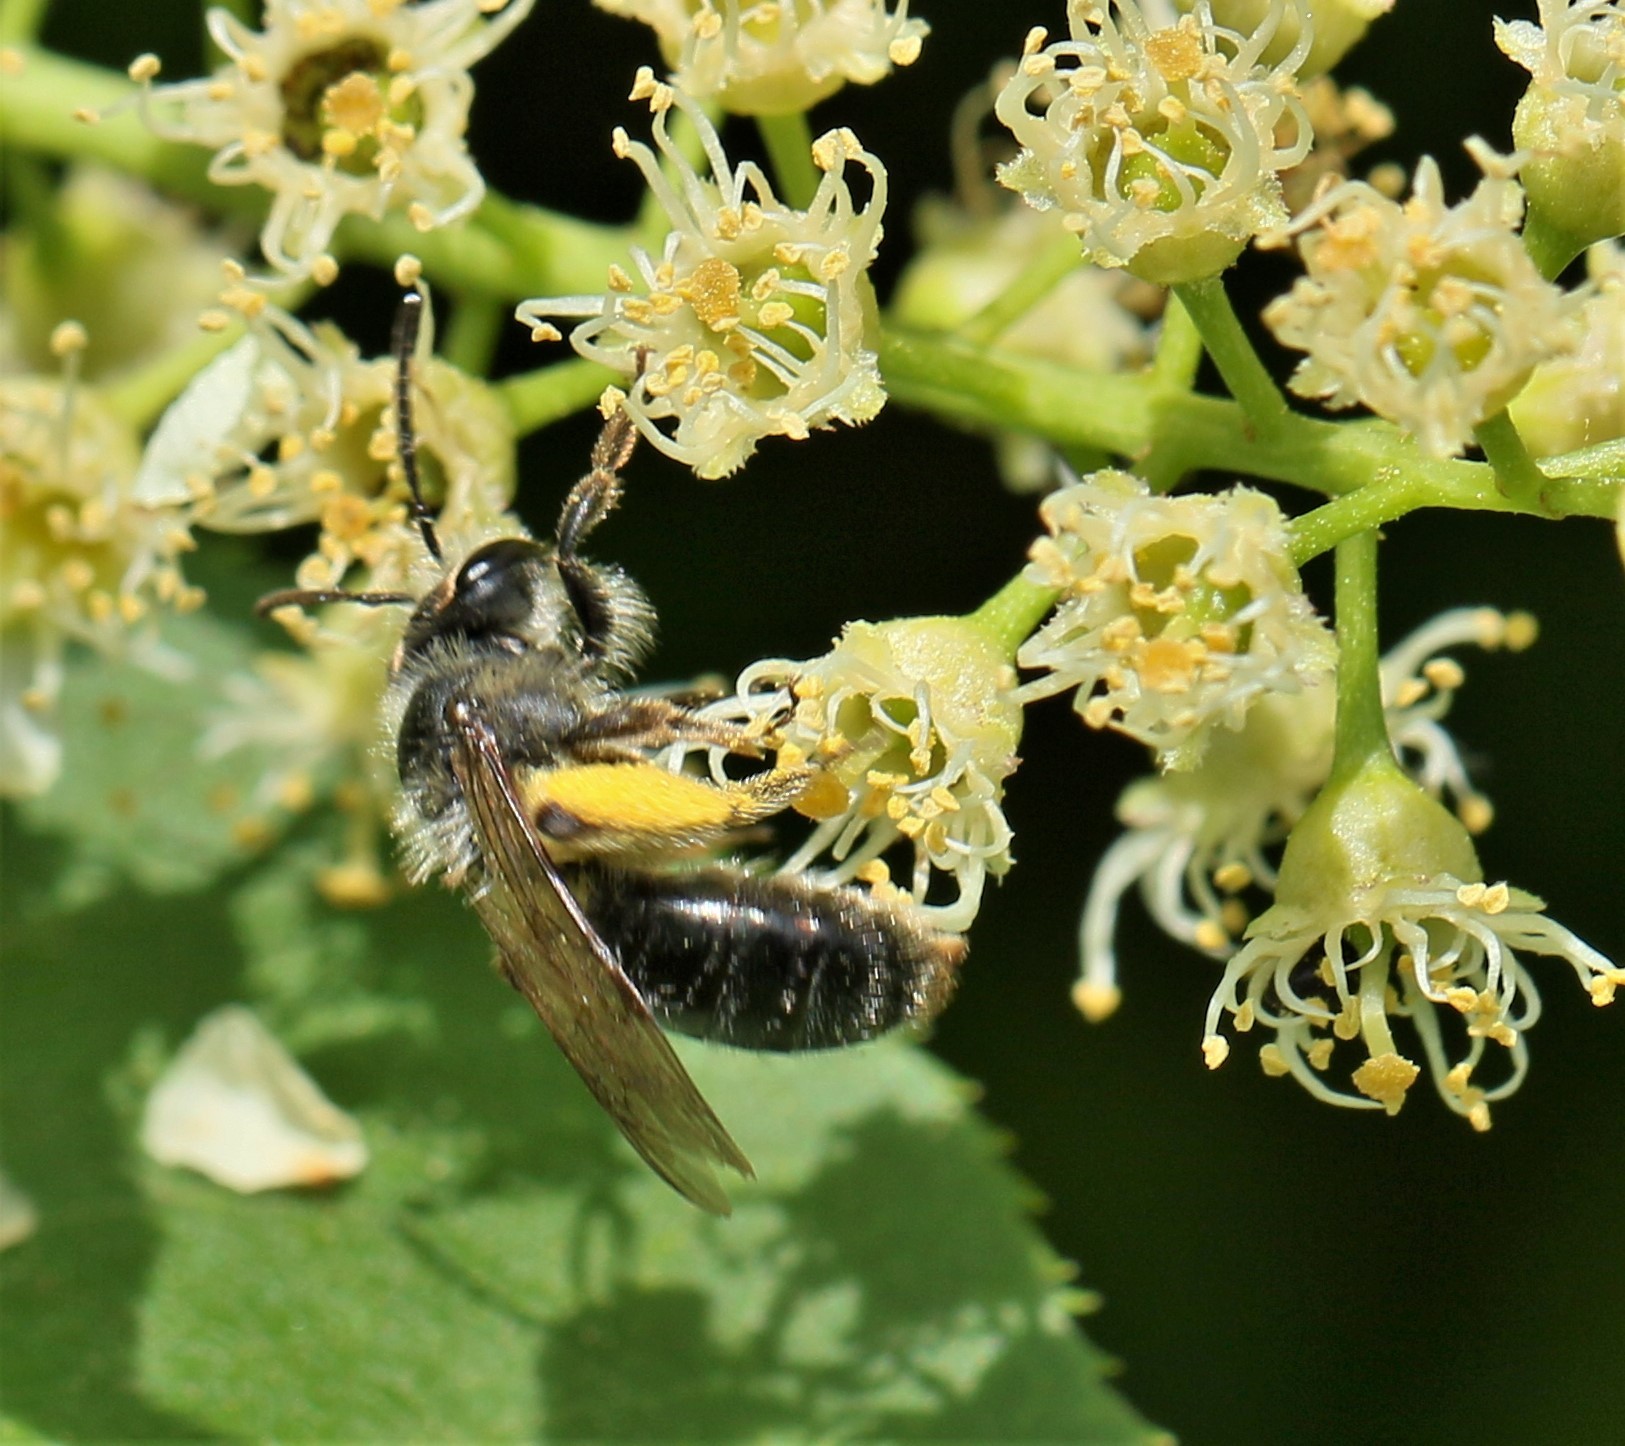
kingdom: Animalia
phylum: Arthropoda
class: Insecta
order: Hymenoptera
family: Andrenidae
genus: Andrena
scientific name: Andrena rufosignata
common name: Brown-fovea miner
